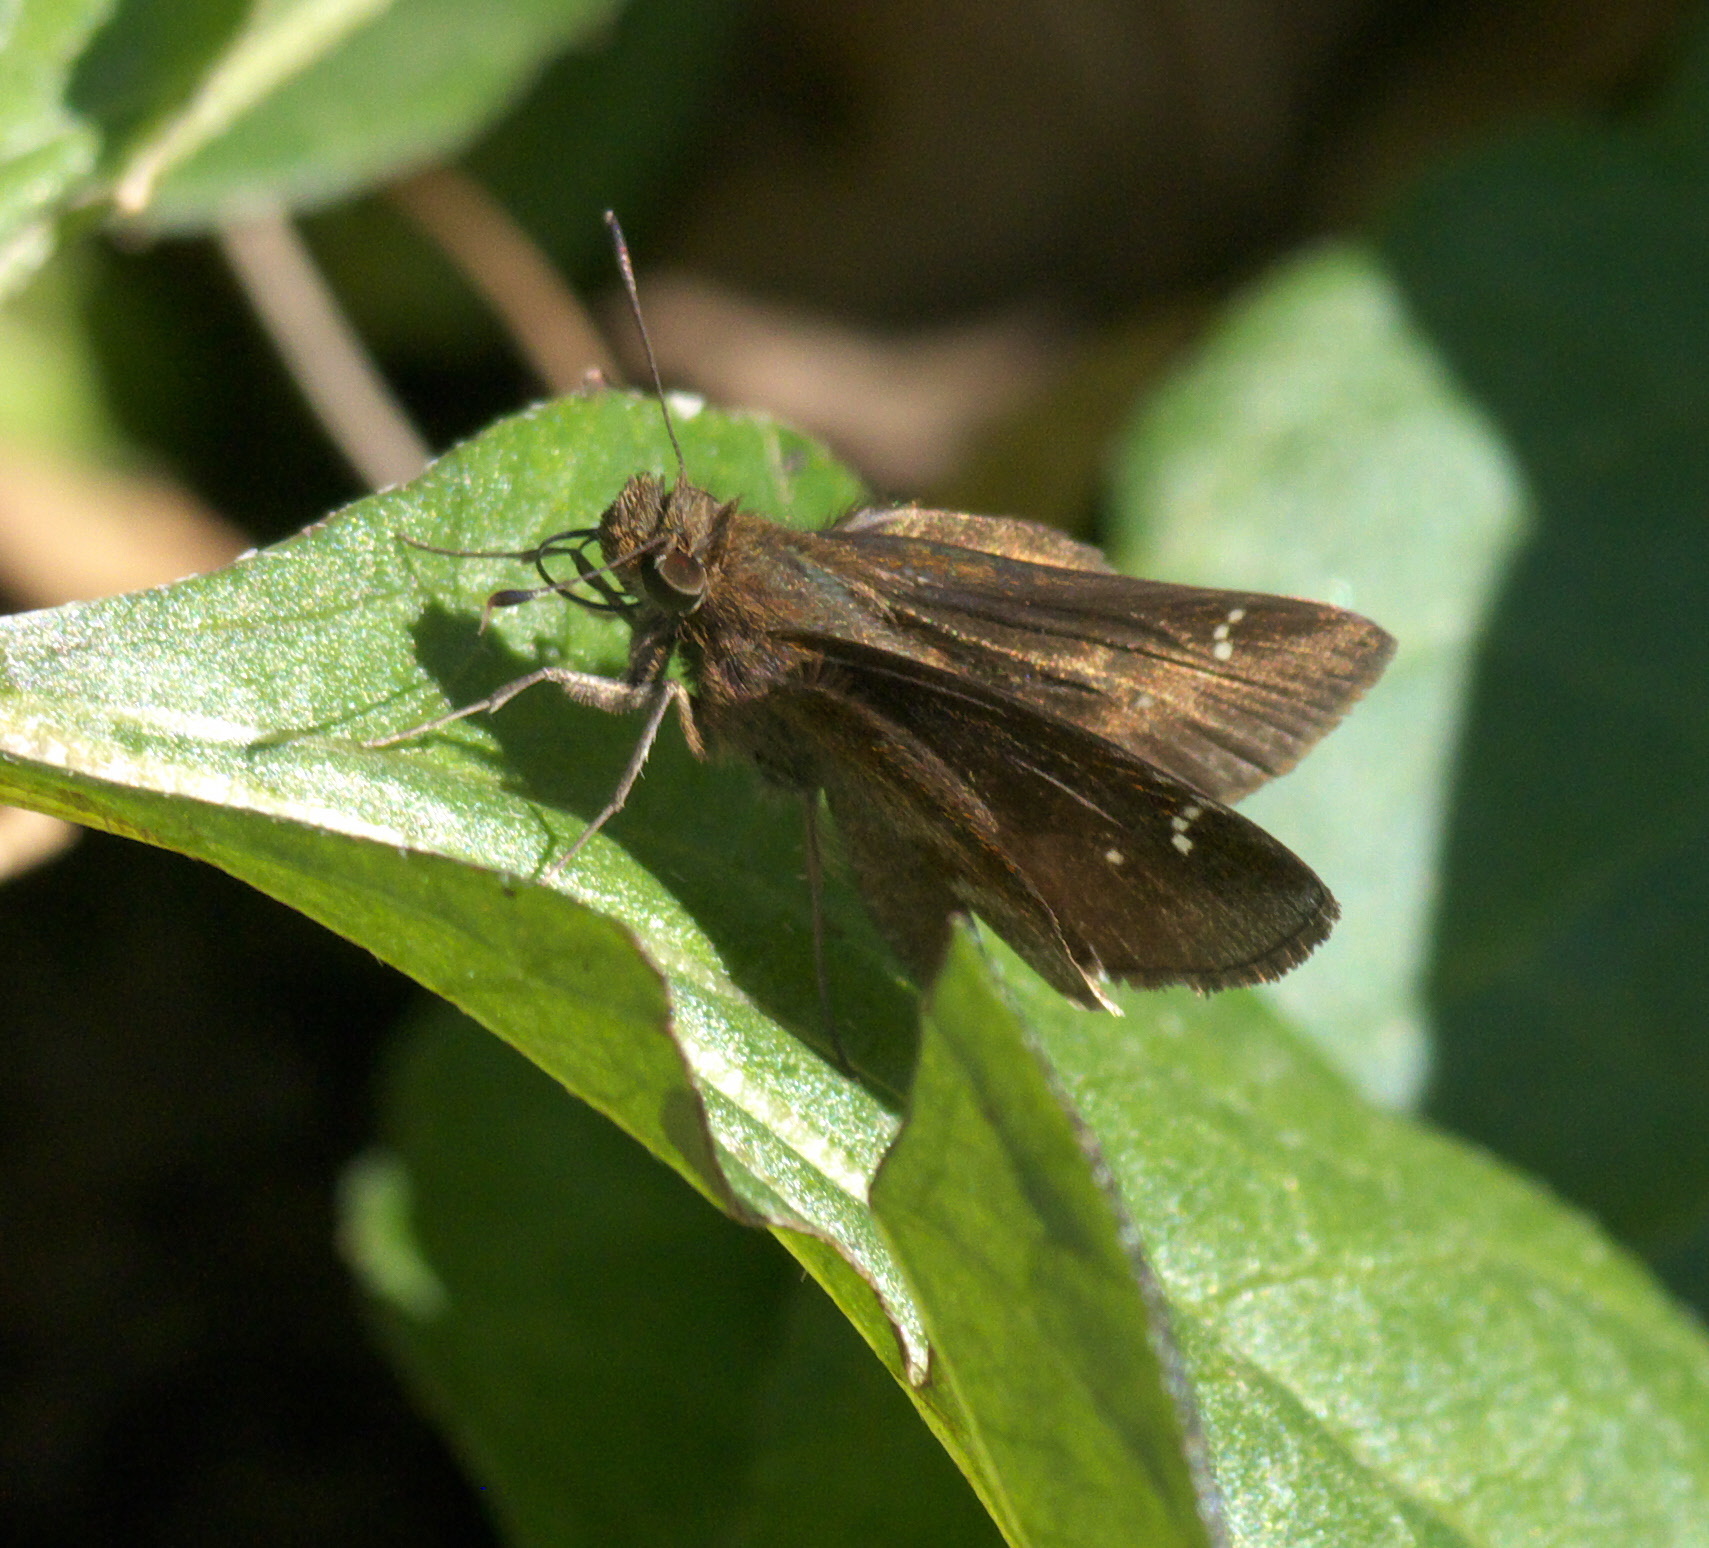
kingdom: Animalia
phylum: Arthropoda
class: Insecta
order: Lepidoptera
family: Hesperiidae
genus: Lerema
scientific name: Lerema accius
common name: Clouded skipper
